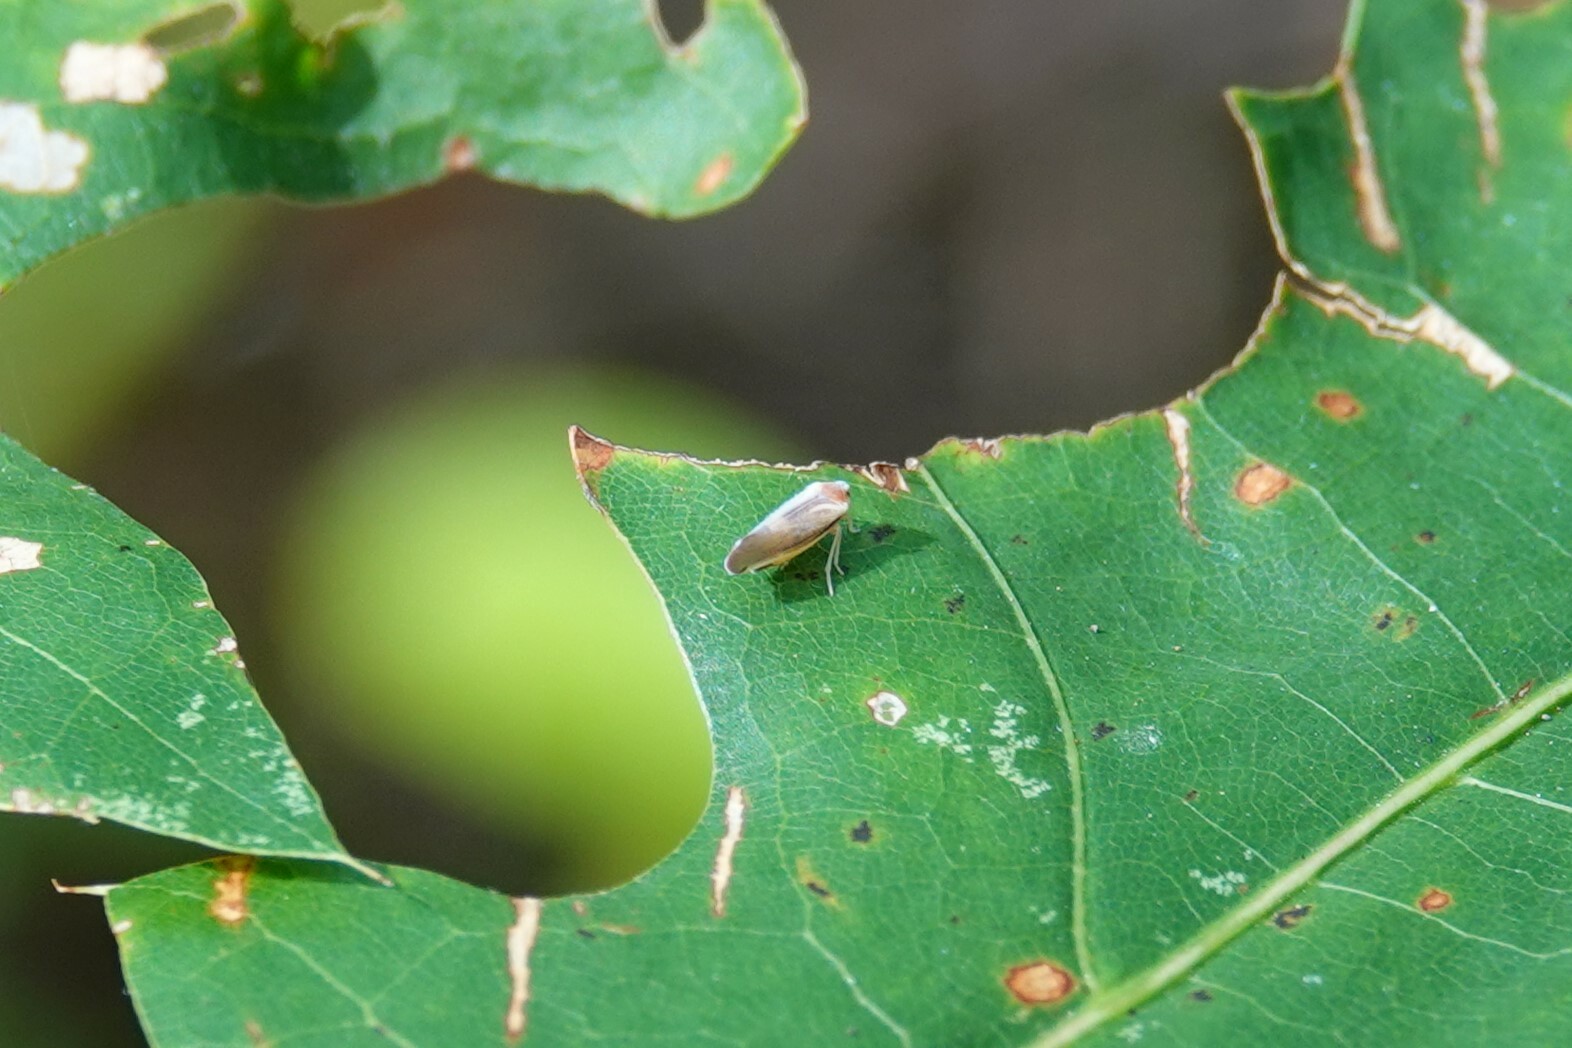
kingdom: Animalia
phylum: Arthropoda
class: Insecta
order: Hemiptera
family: Derbidae
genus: Omolicna
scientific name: Omolicna uhleri
